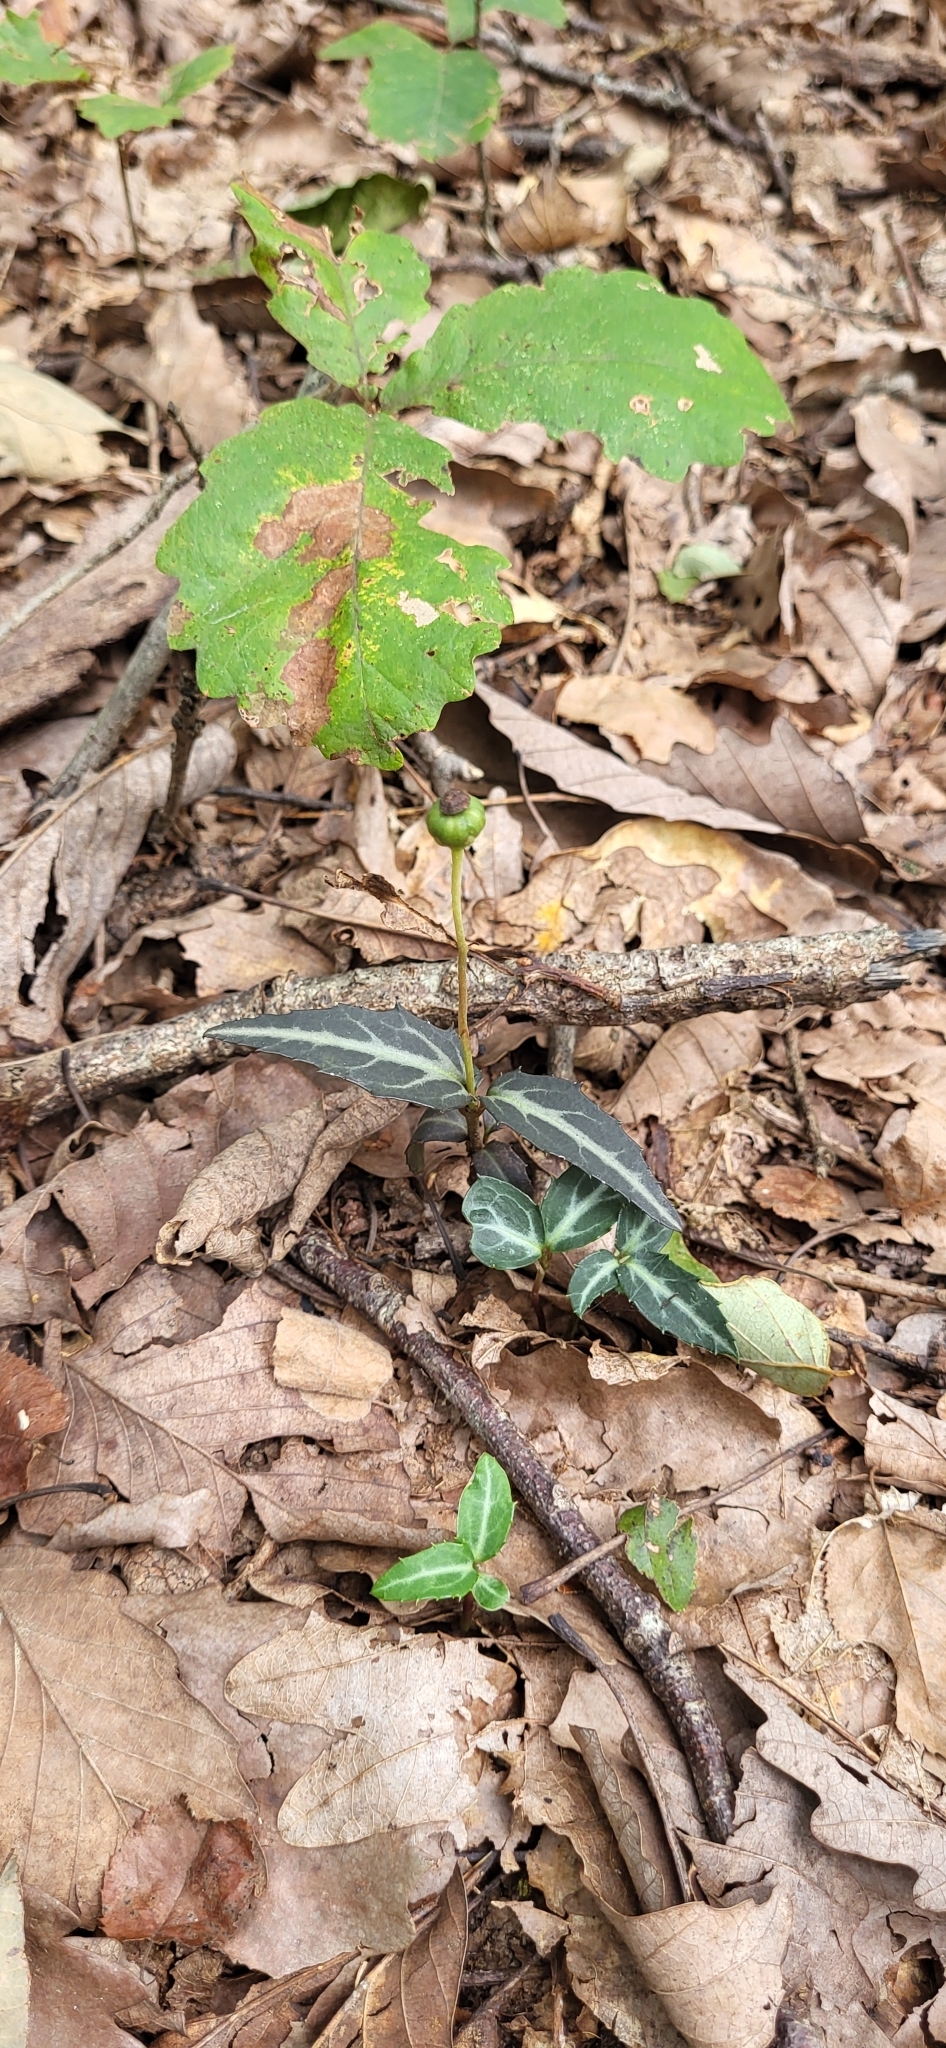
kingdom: Plantae
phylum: Tracheophyta
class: Magnoliopsida
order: Ericales
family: Ericaceae
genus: Chimaphila
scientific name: Chimaphila maculata
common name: Spotted pipsissewa
